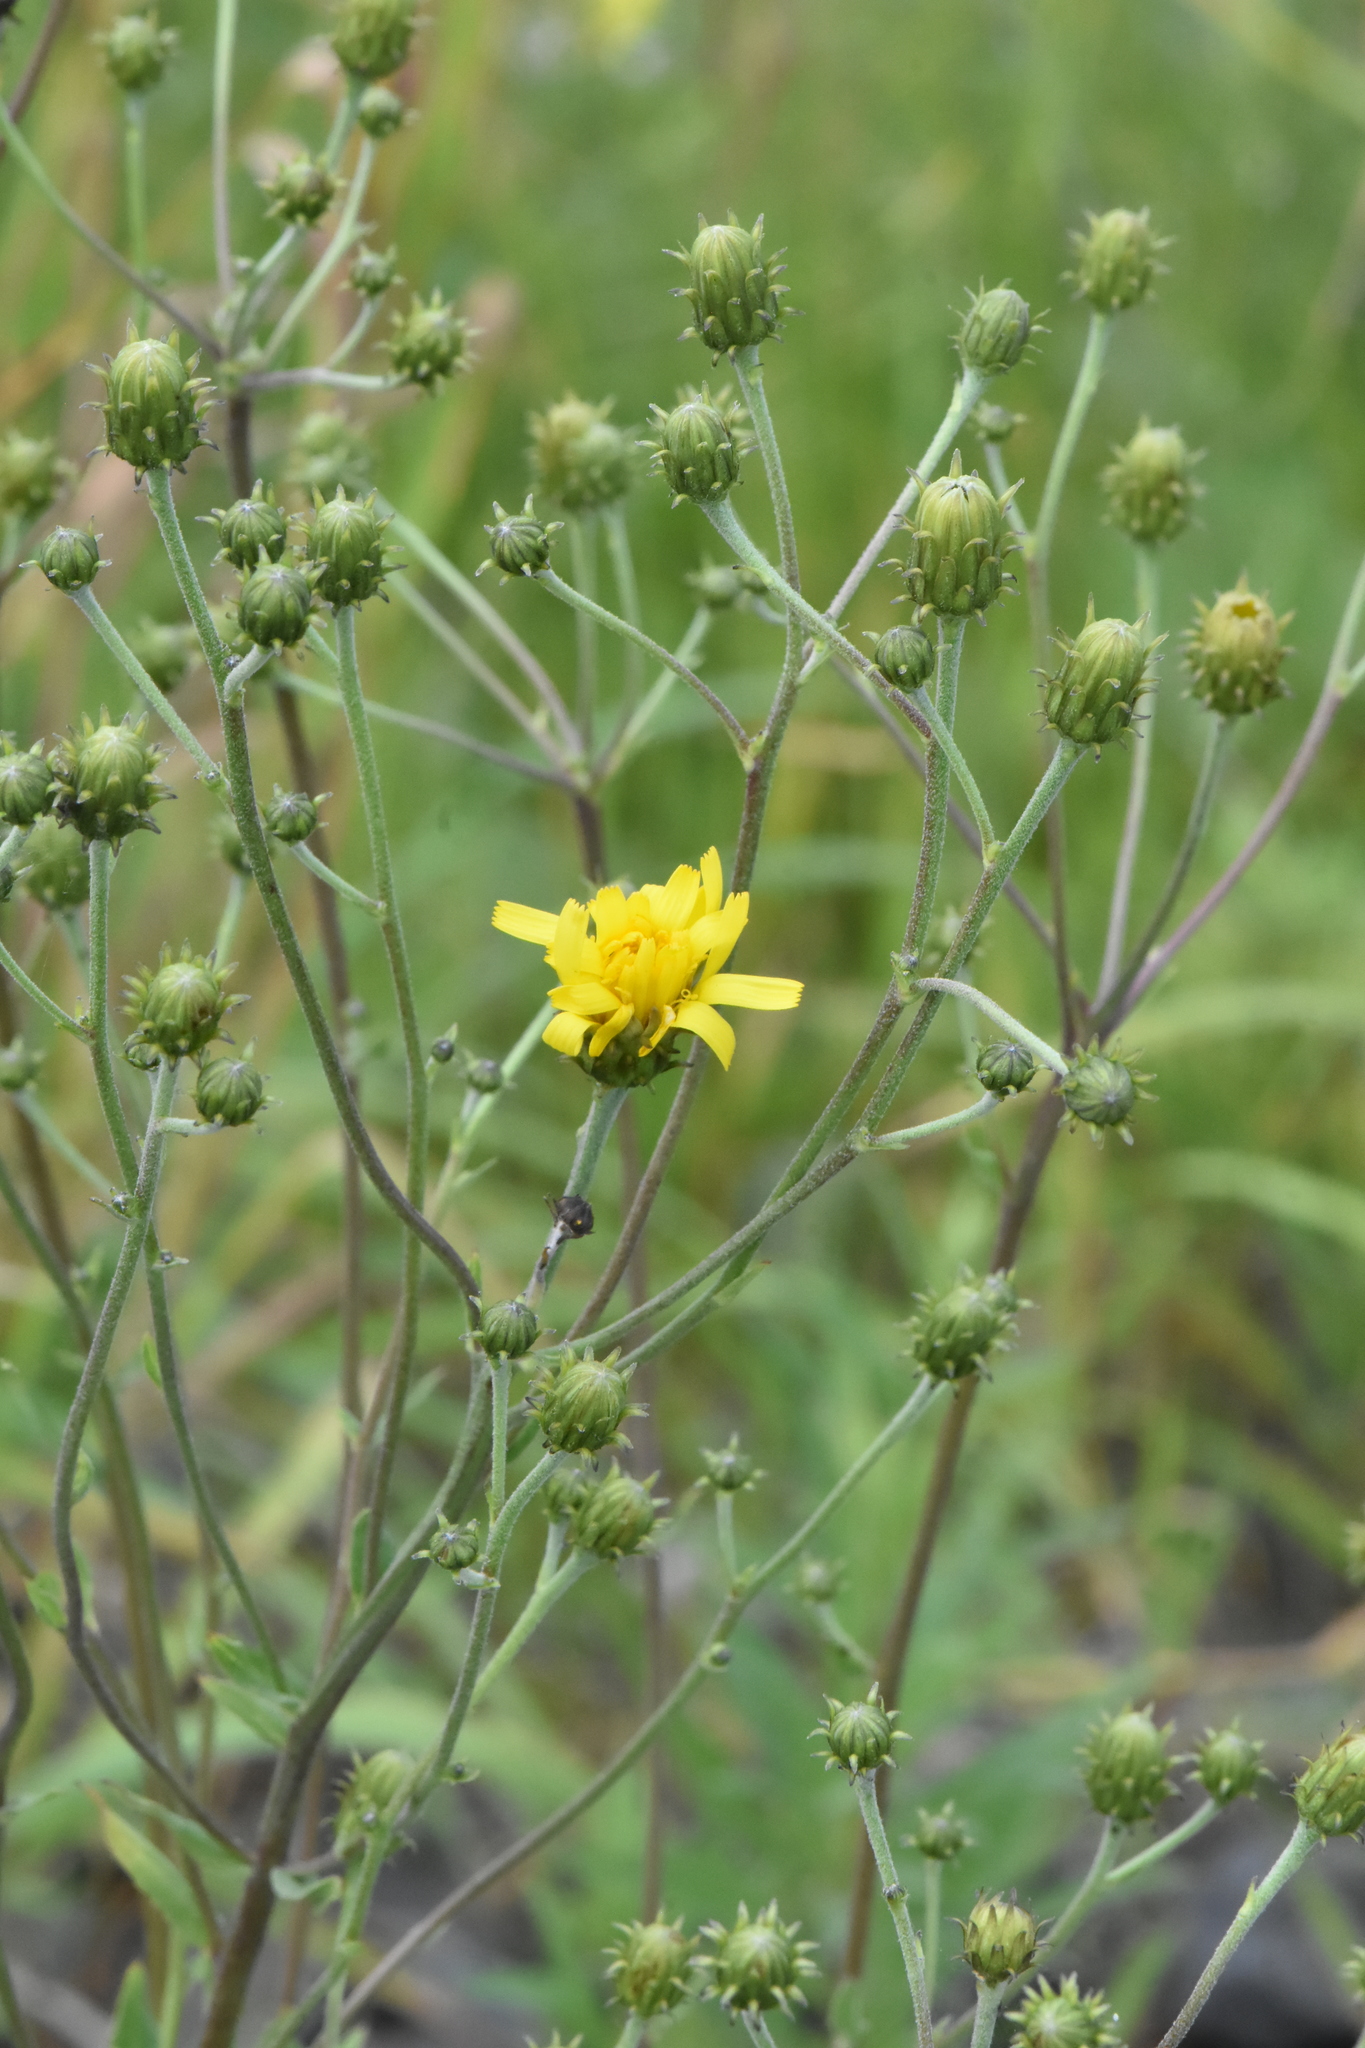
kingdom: Plantae
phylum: Tracheophyta
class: Magnoliopsida
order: Asterales
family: Asteraceae
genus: Hieracium
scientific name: Hieracium umbellatum
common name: Northern hawkweed
